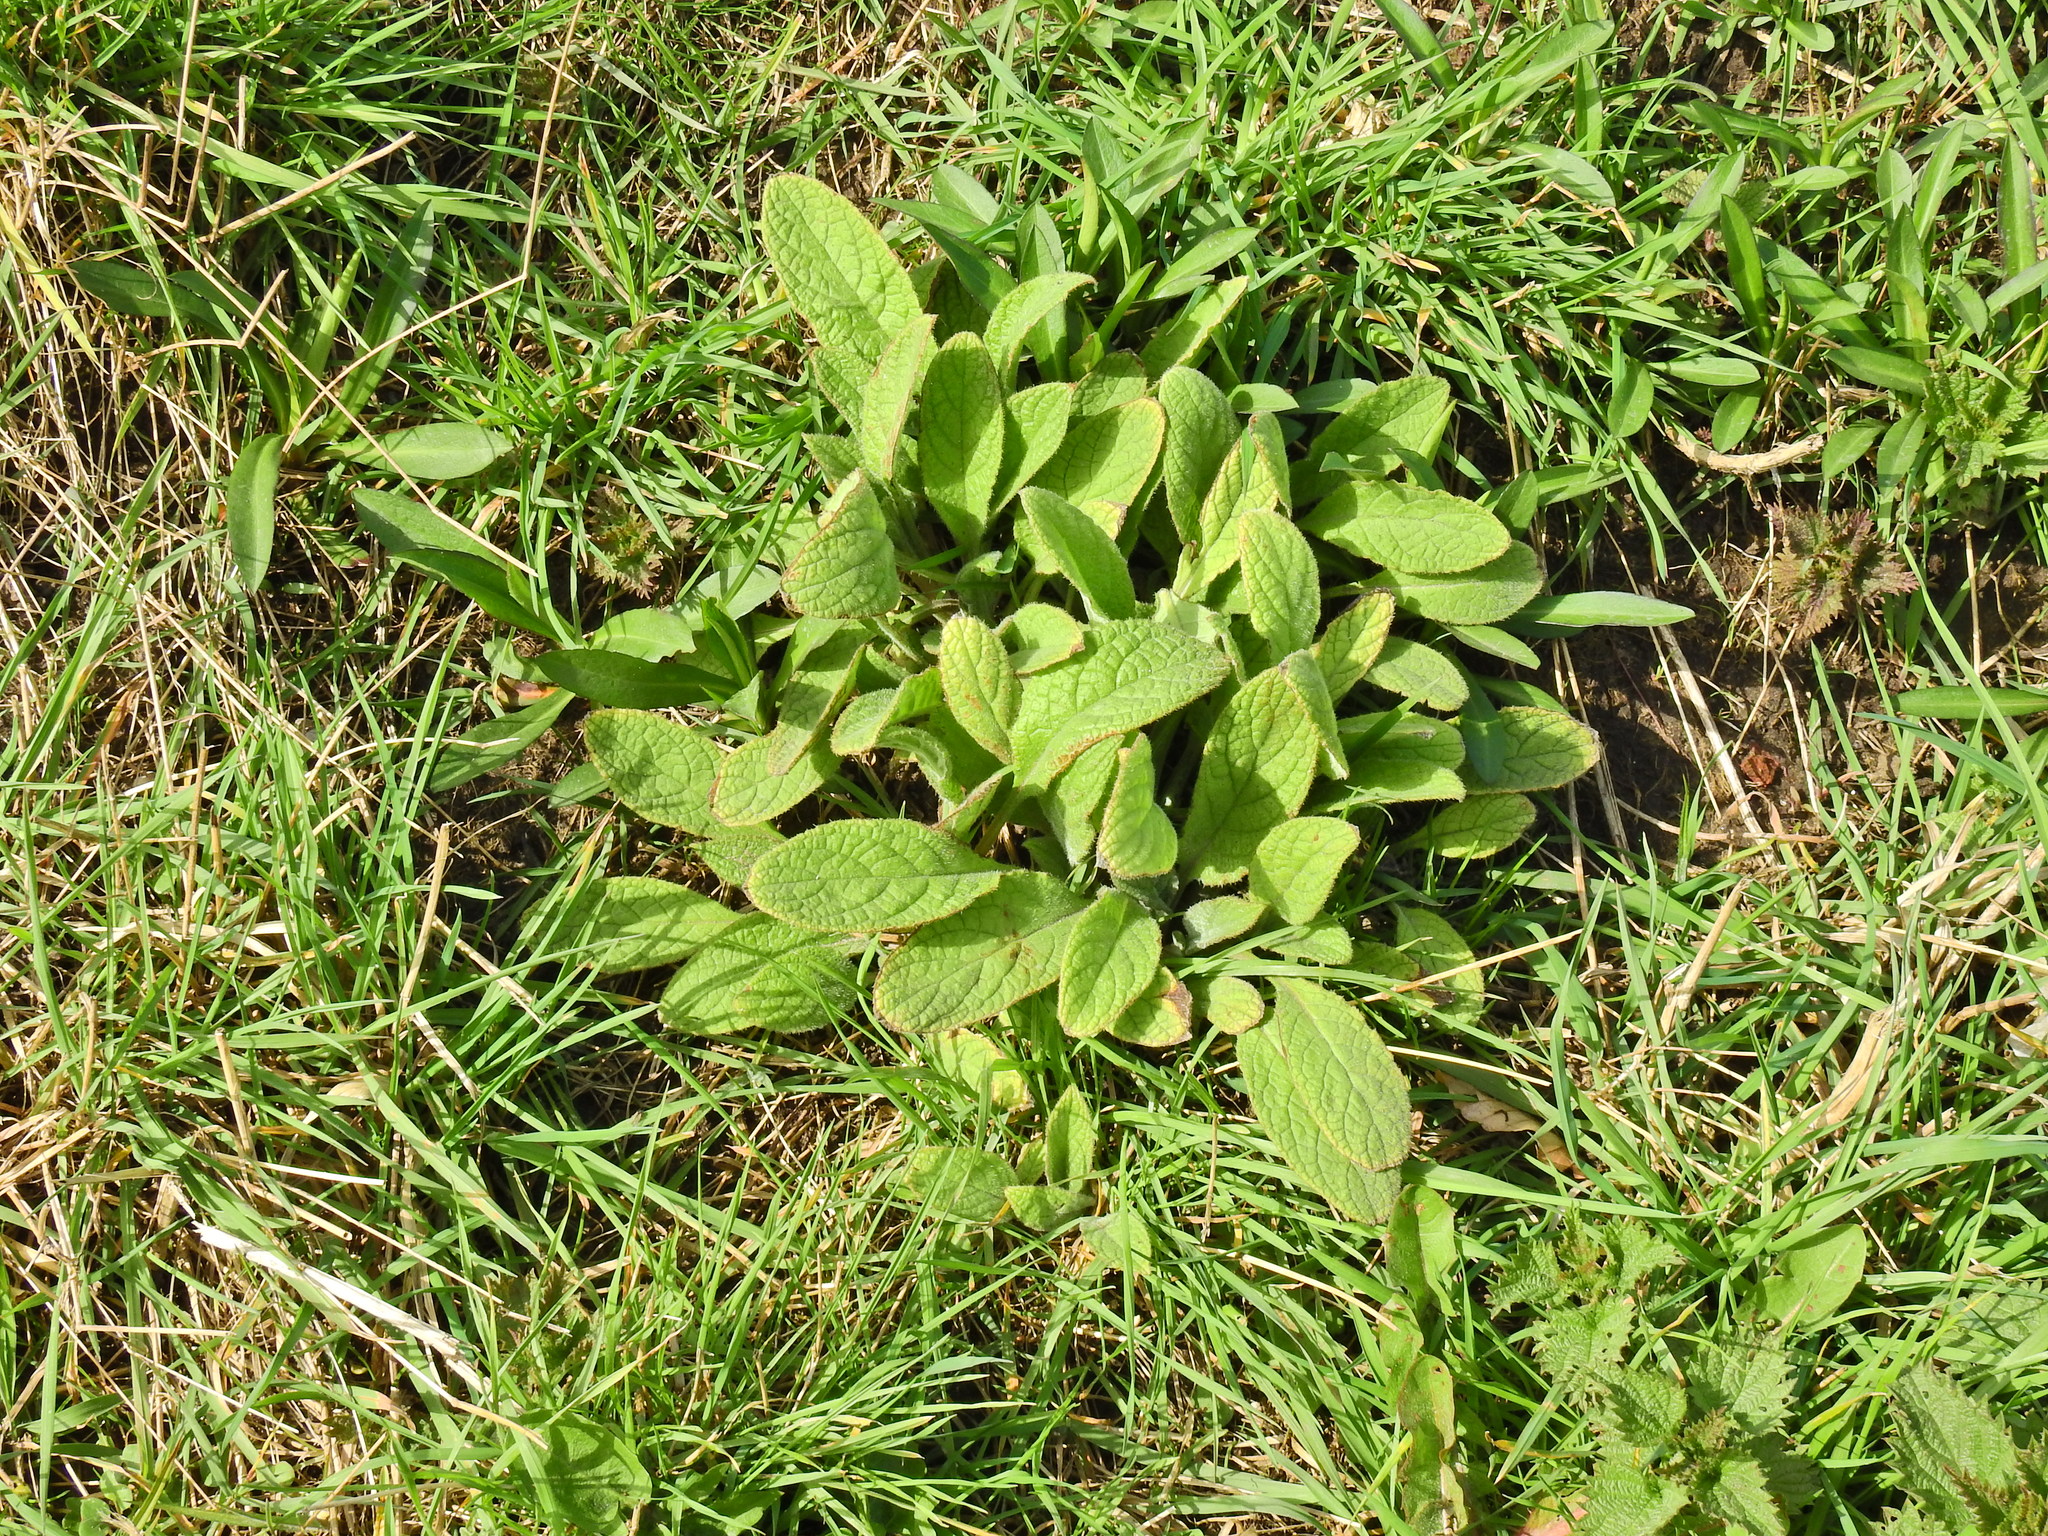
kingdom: Plantae
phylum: Tracheophyta
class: Magnoliopsida
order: Boraginales
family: Boraginaceae
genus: Symphytum
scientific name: Symphytum officinale
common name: Common comfrey
